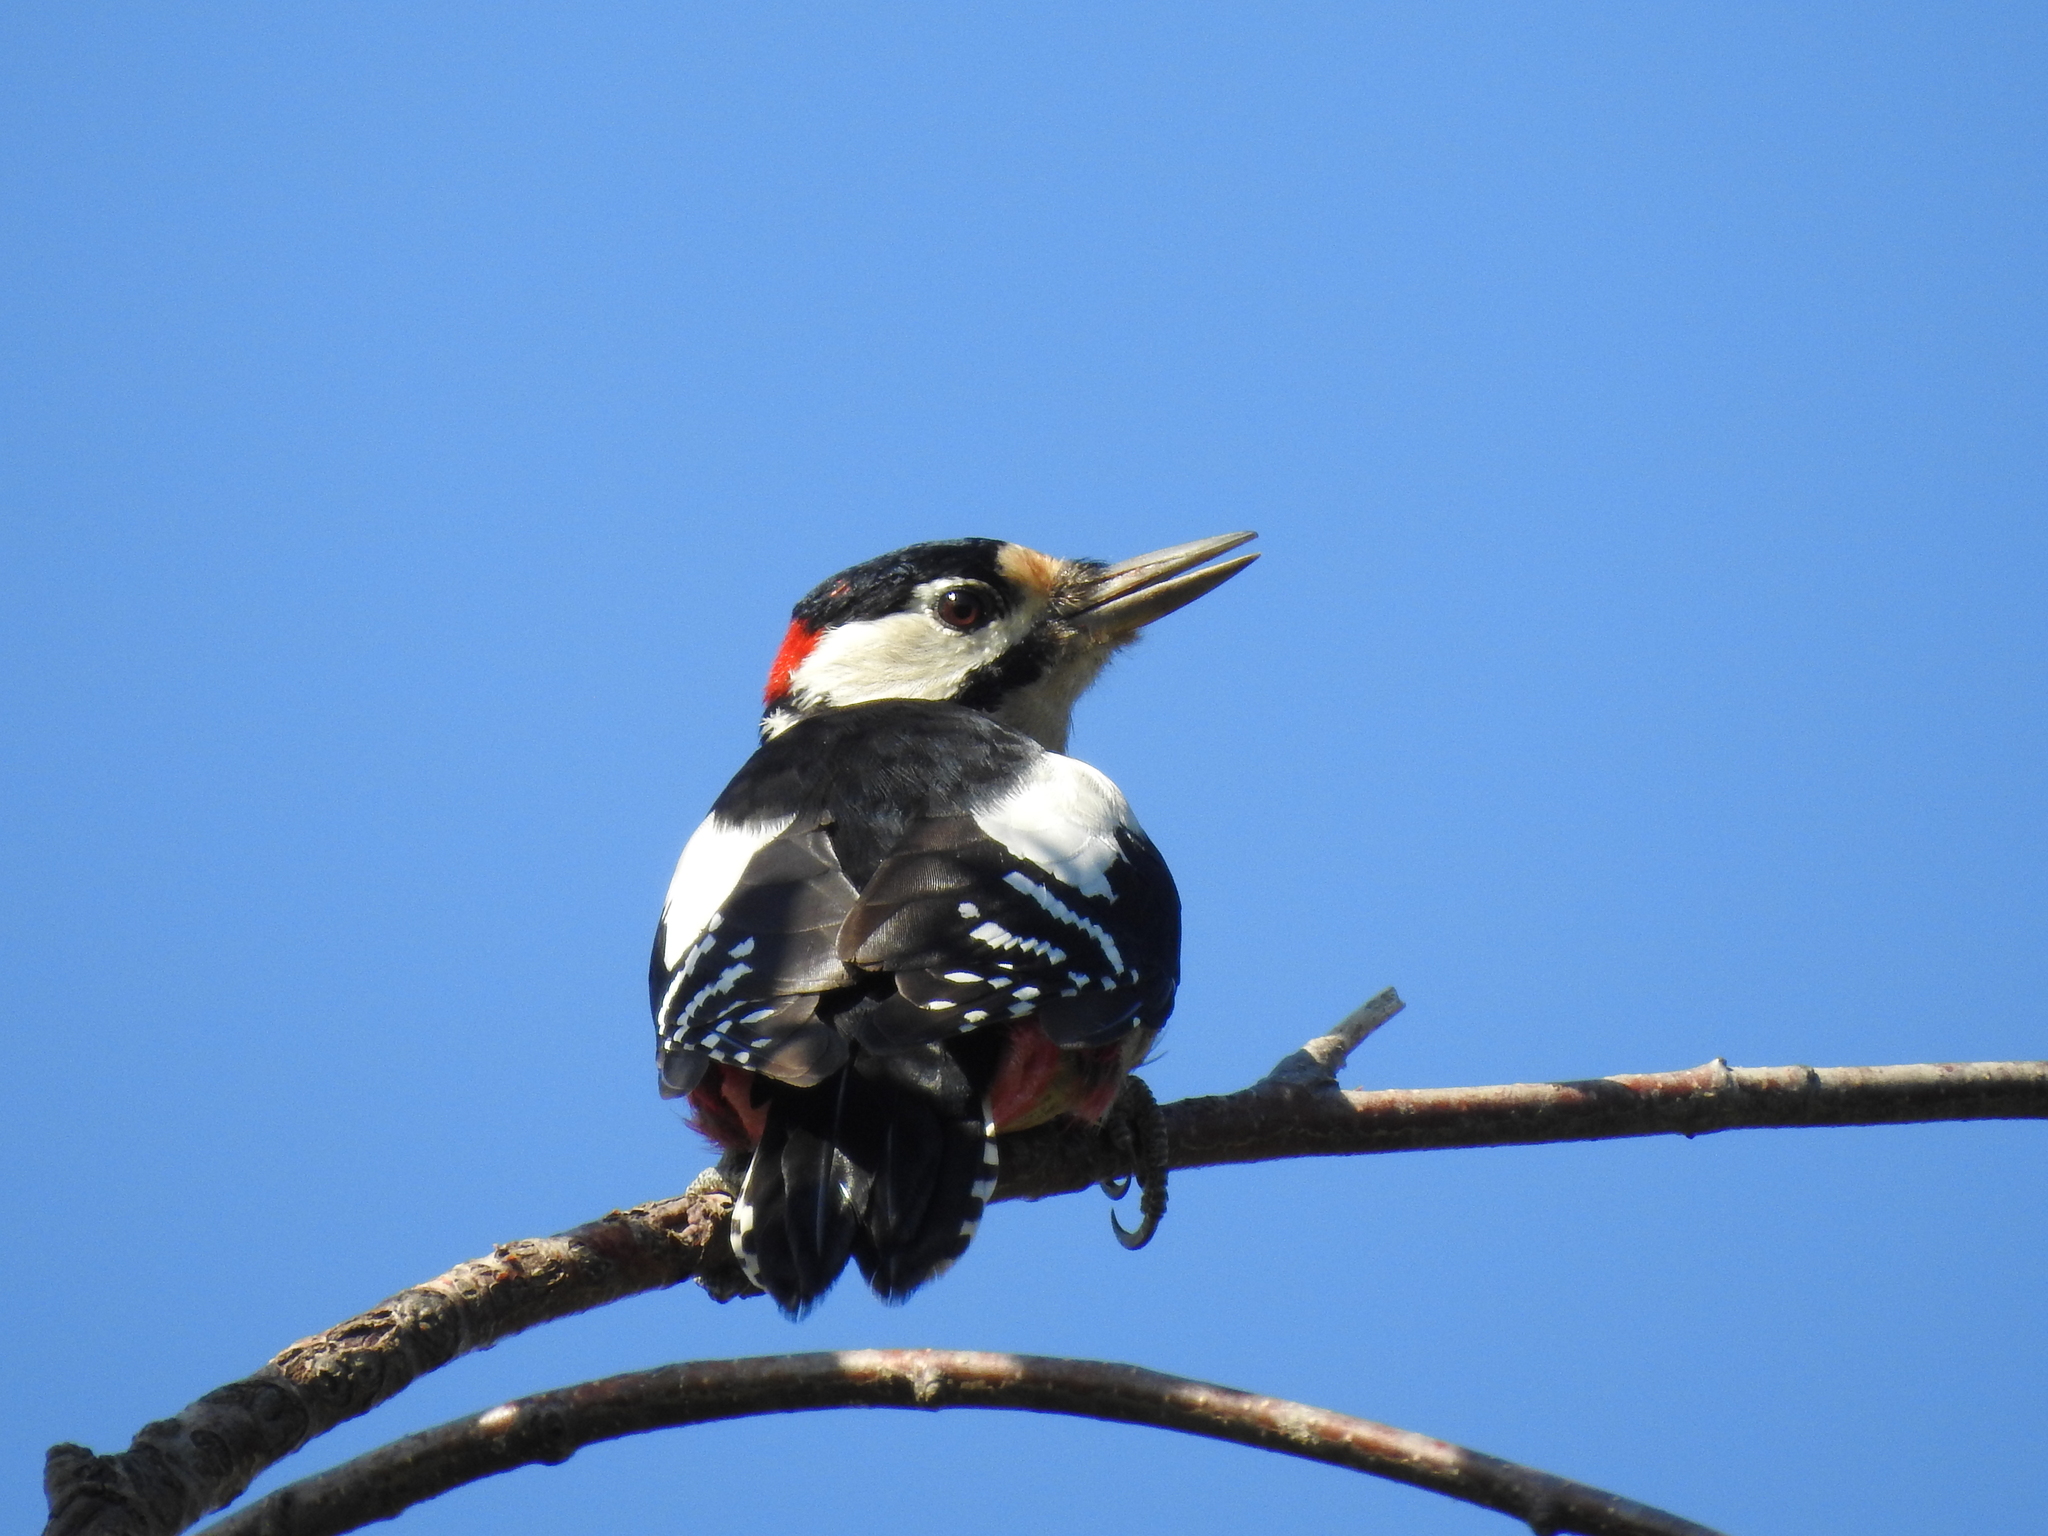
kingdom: Animalia
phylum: Chordata
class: Aves
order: Piciformes
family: Picidae
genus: Dendrocopos
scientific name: Dendrocopos major
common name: Great spotted woodpecker
